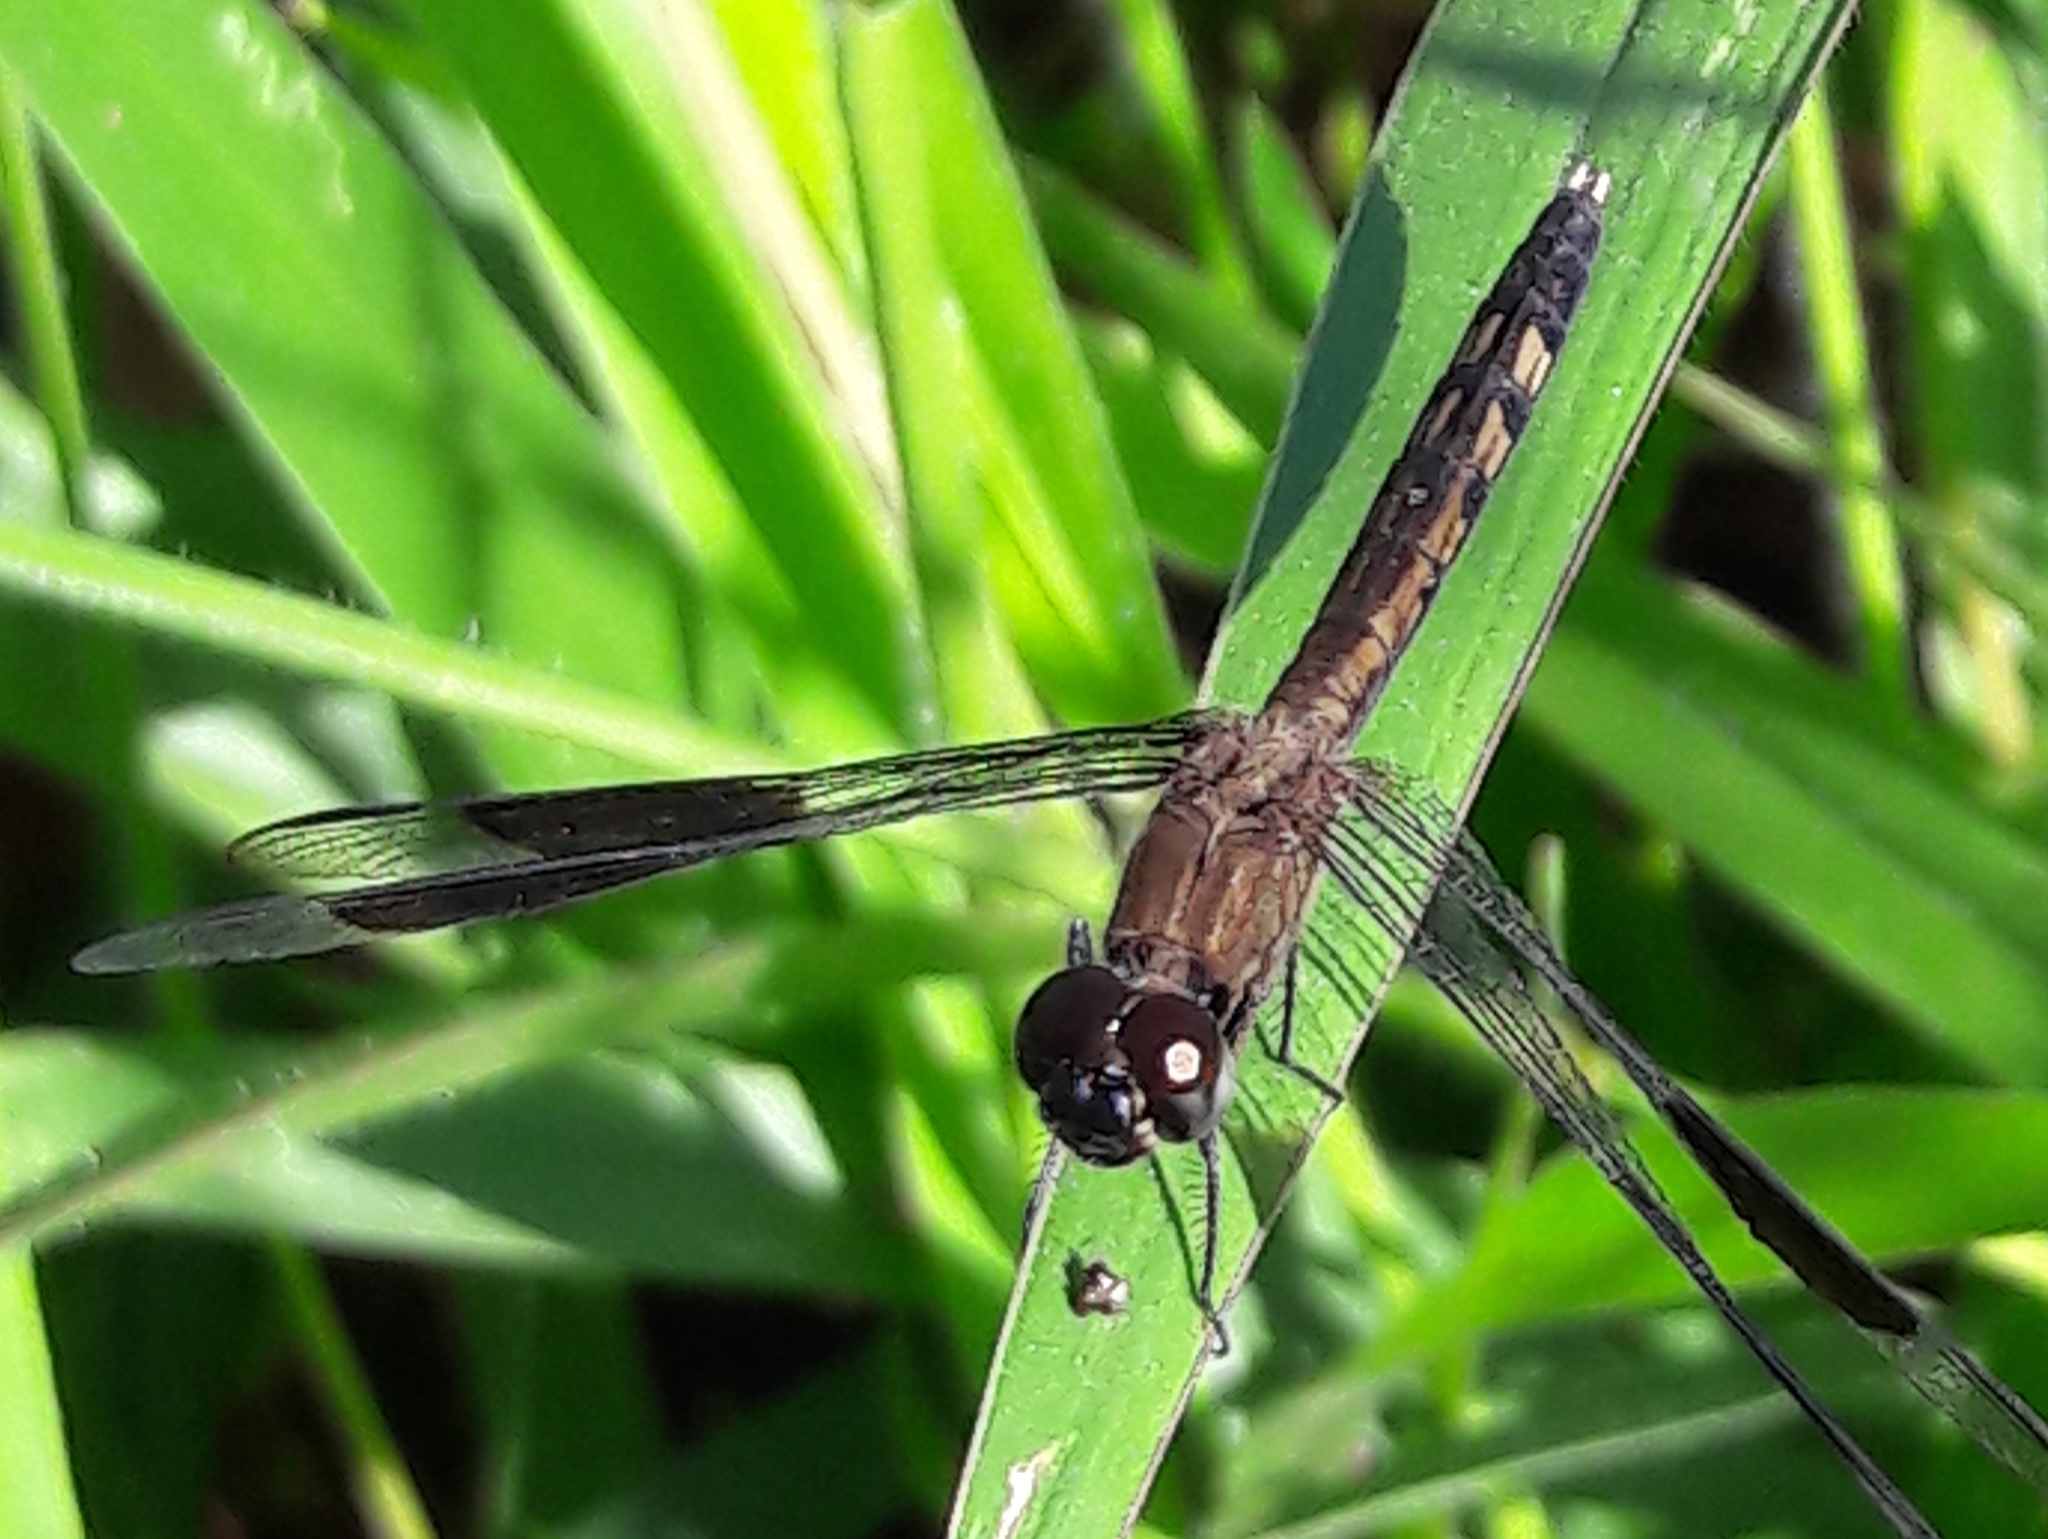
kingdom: Animalia
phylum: Arthropoda
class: Insecta
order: Odonata
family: Libellulidae
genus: Erythrodiplax
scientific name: Erythrodiplax umbrata
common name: Band-winged dragonlet
